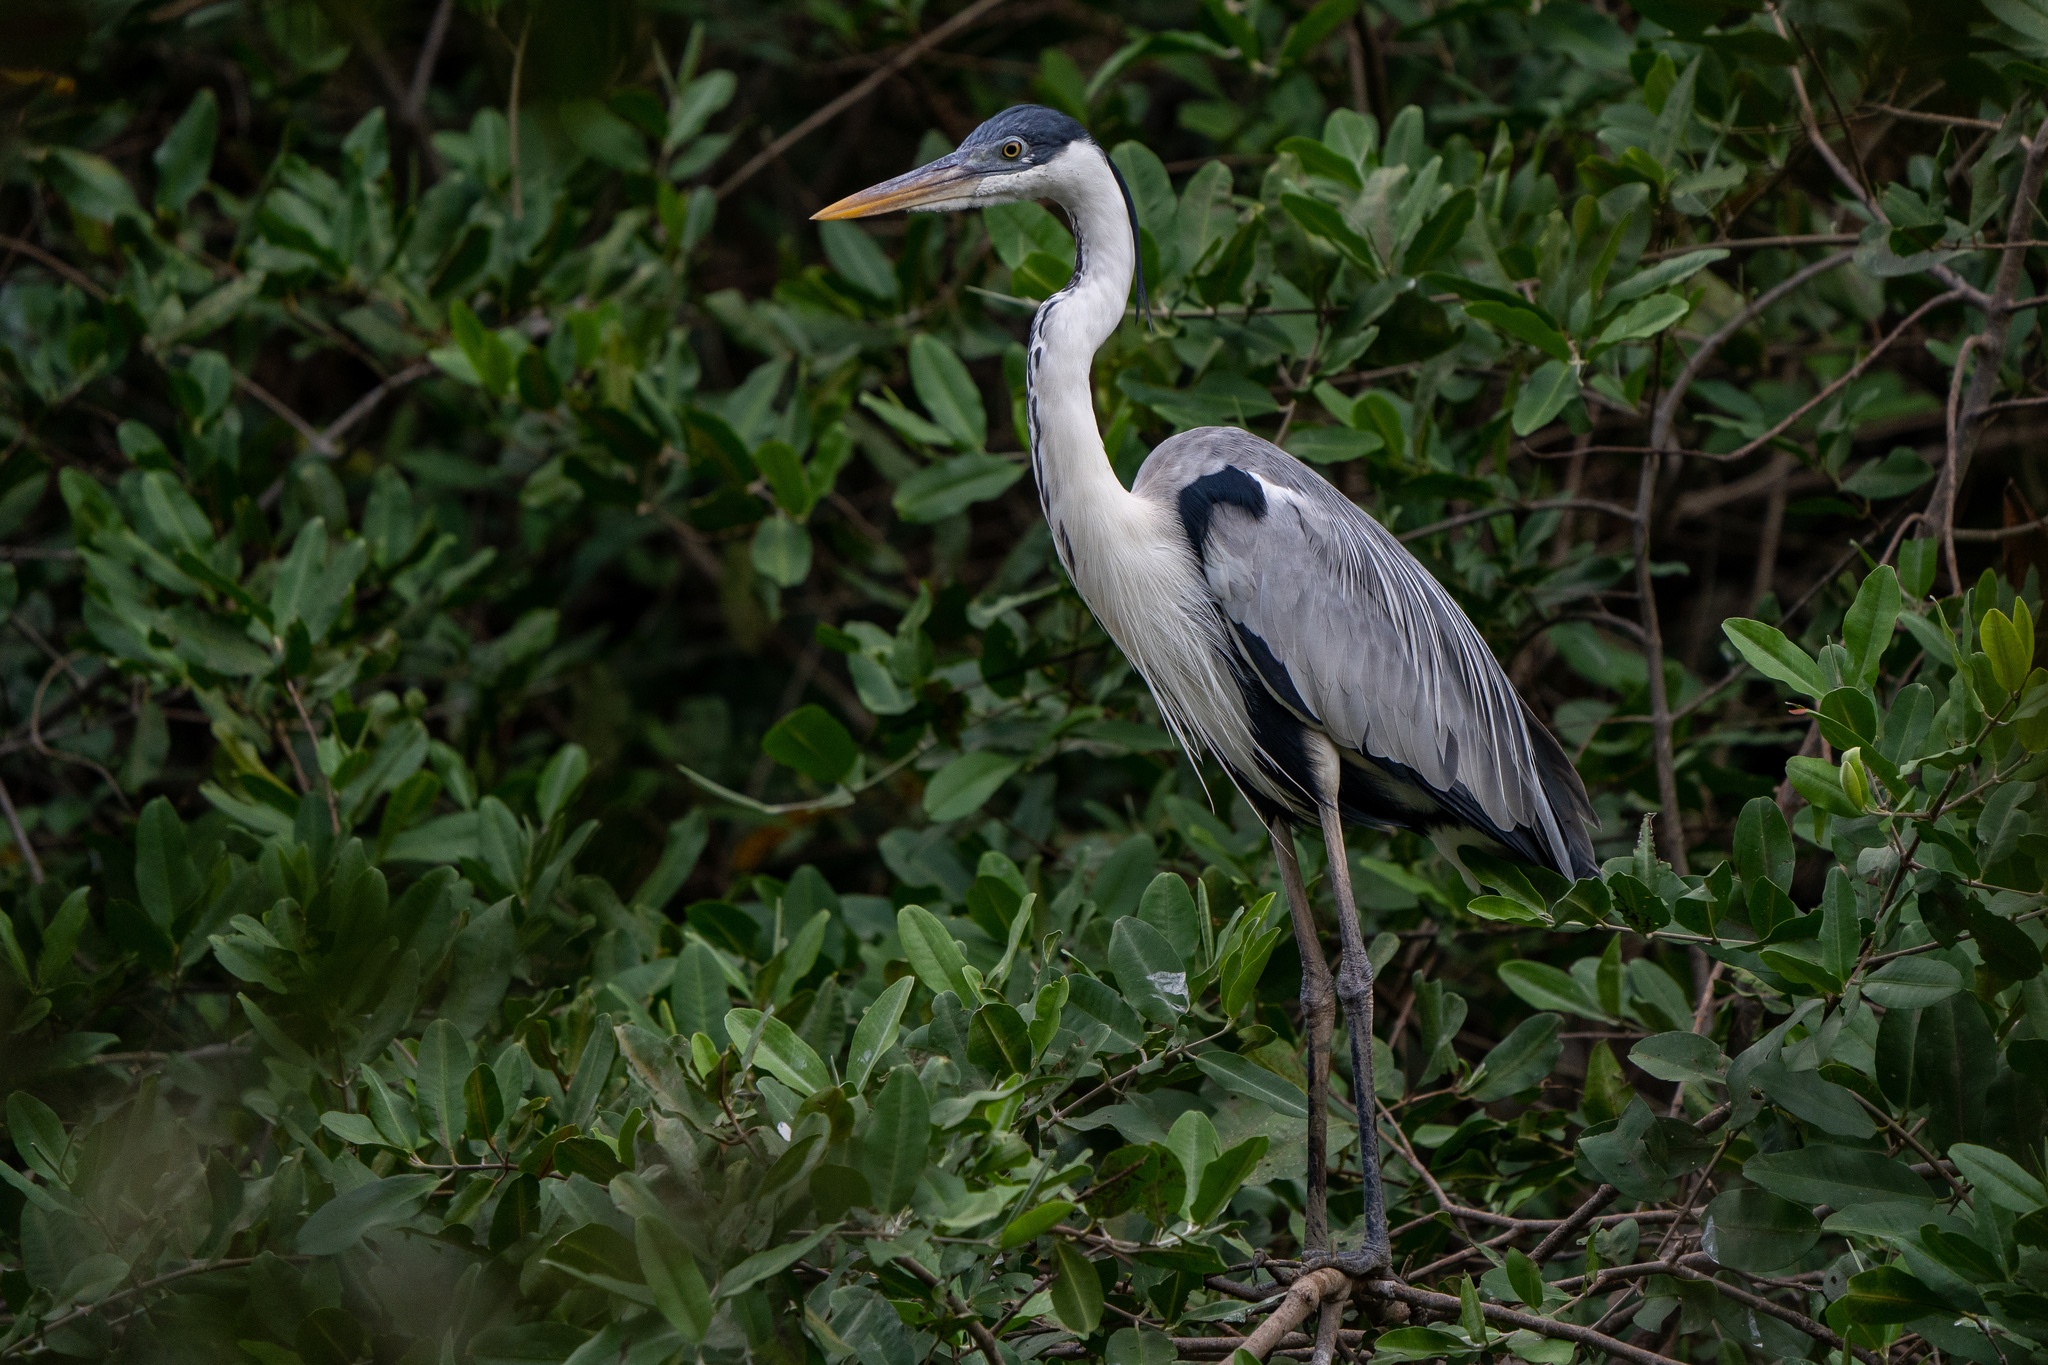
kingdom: Animalia
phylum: Chordata
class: Aves
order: Pelecaniformes
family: Ardeidae
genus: Ardea
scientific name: Ardea cocoi
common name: Cocoi heron
